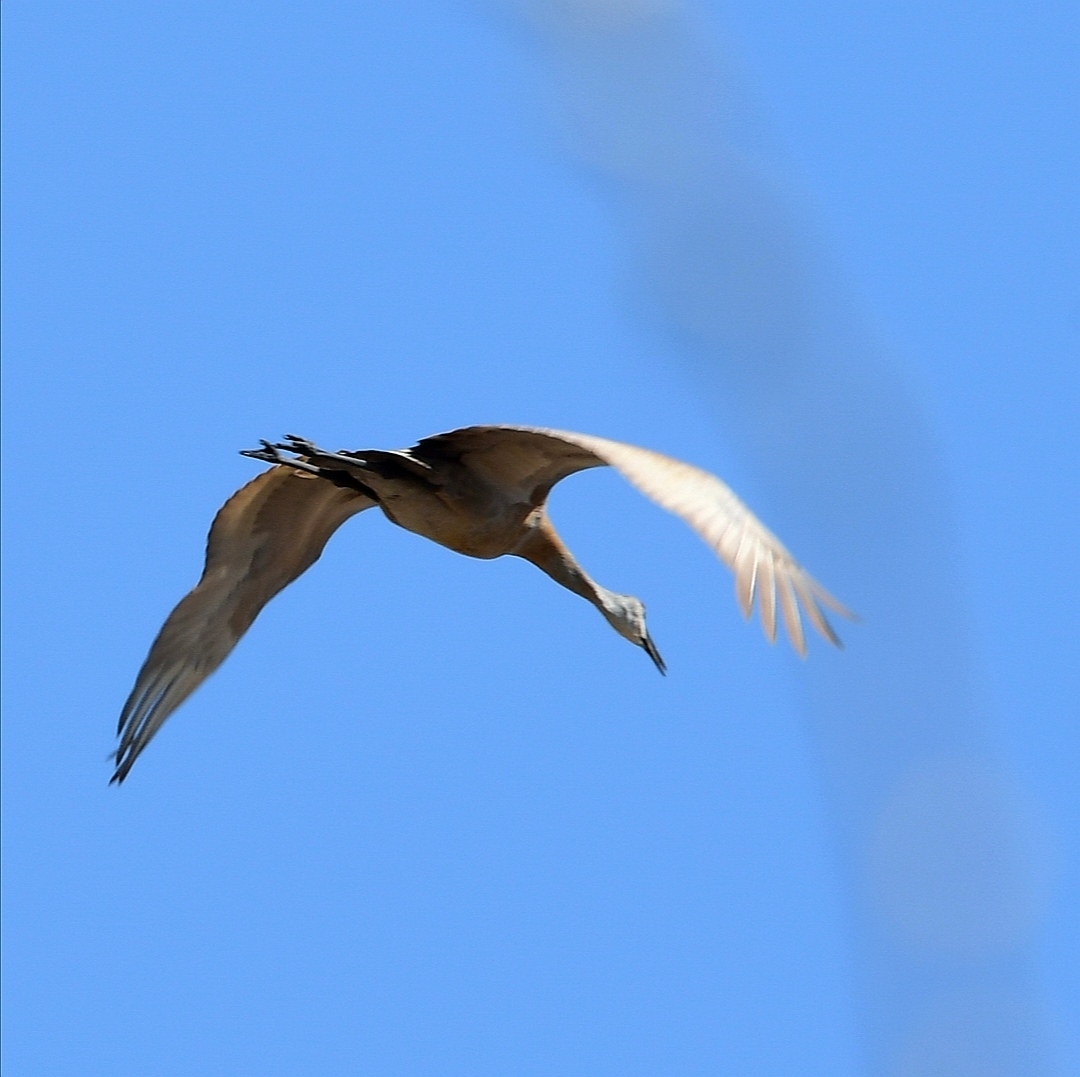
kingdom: Animalia
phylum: Chordata
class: Aves
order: Gruiformes
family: Gruidae
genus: Grus
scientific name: Grus canadensis
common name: Sandhill crane
